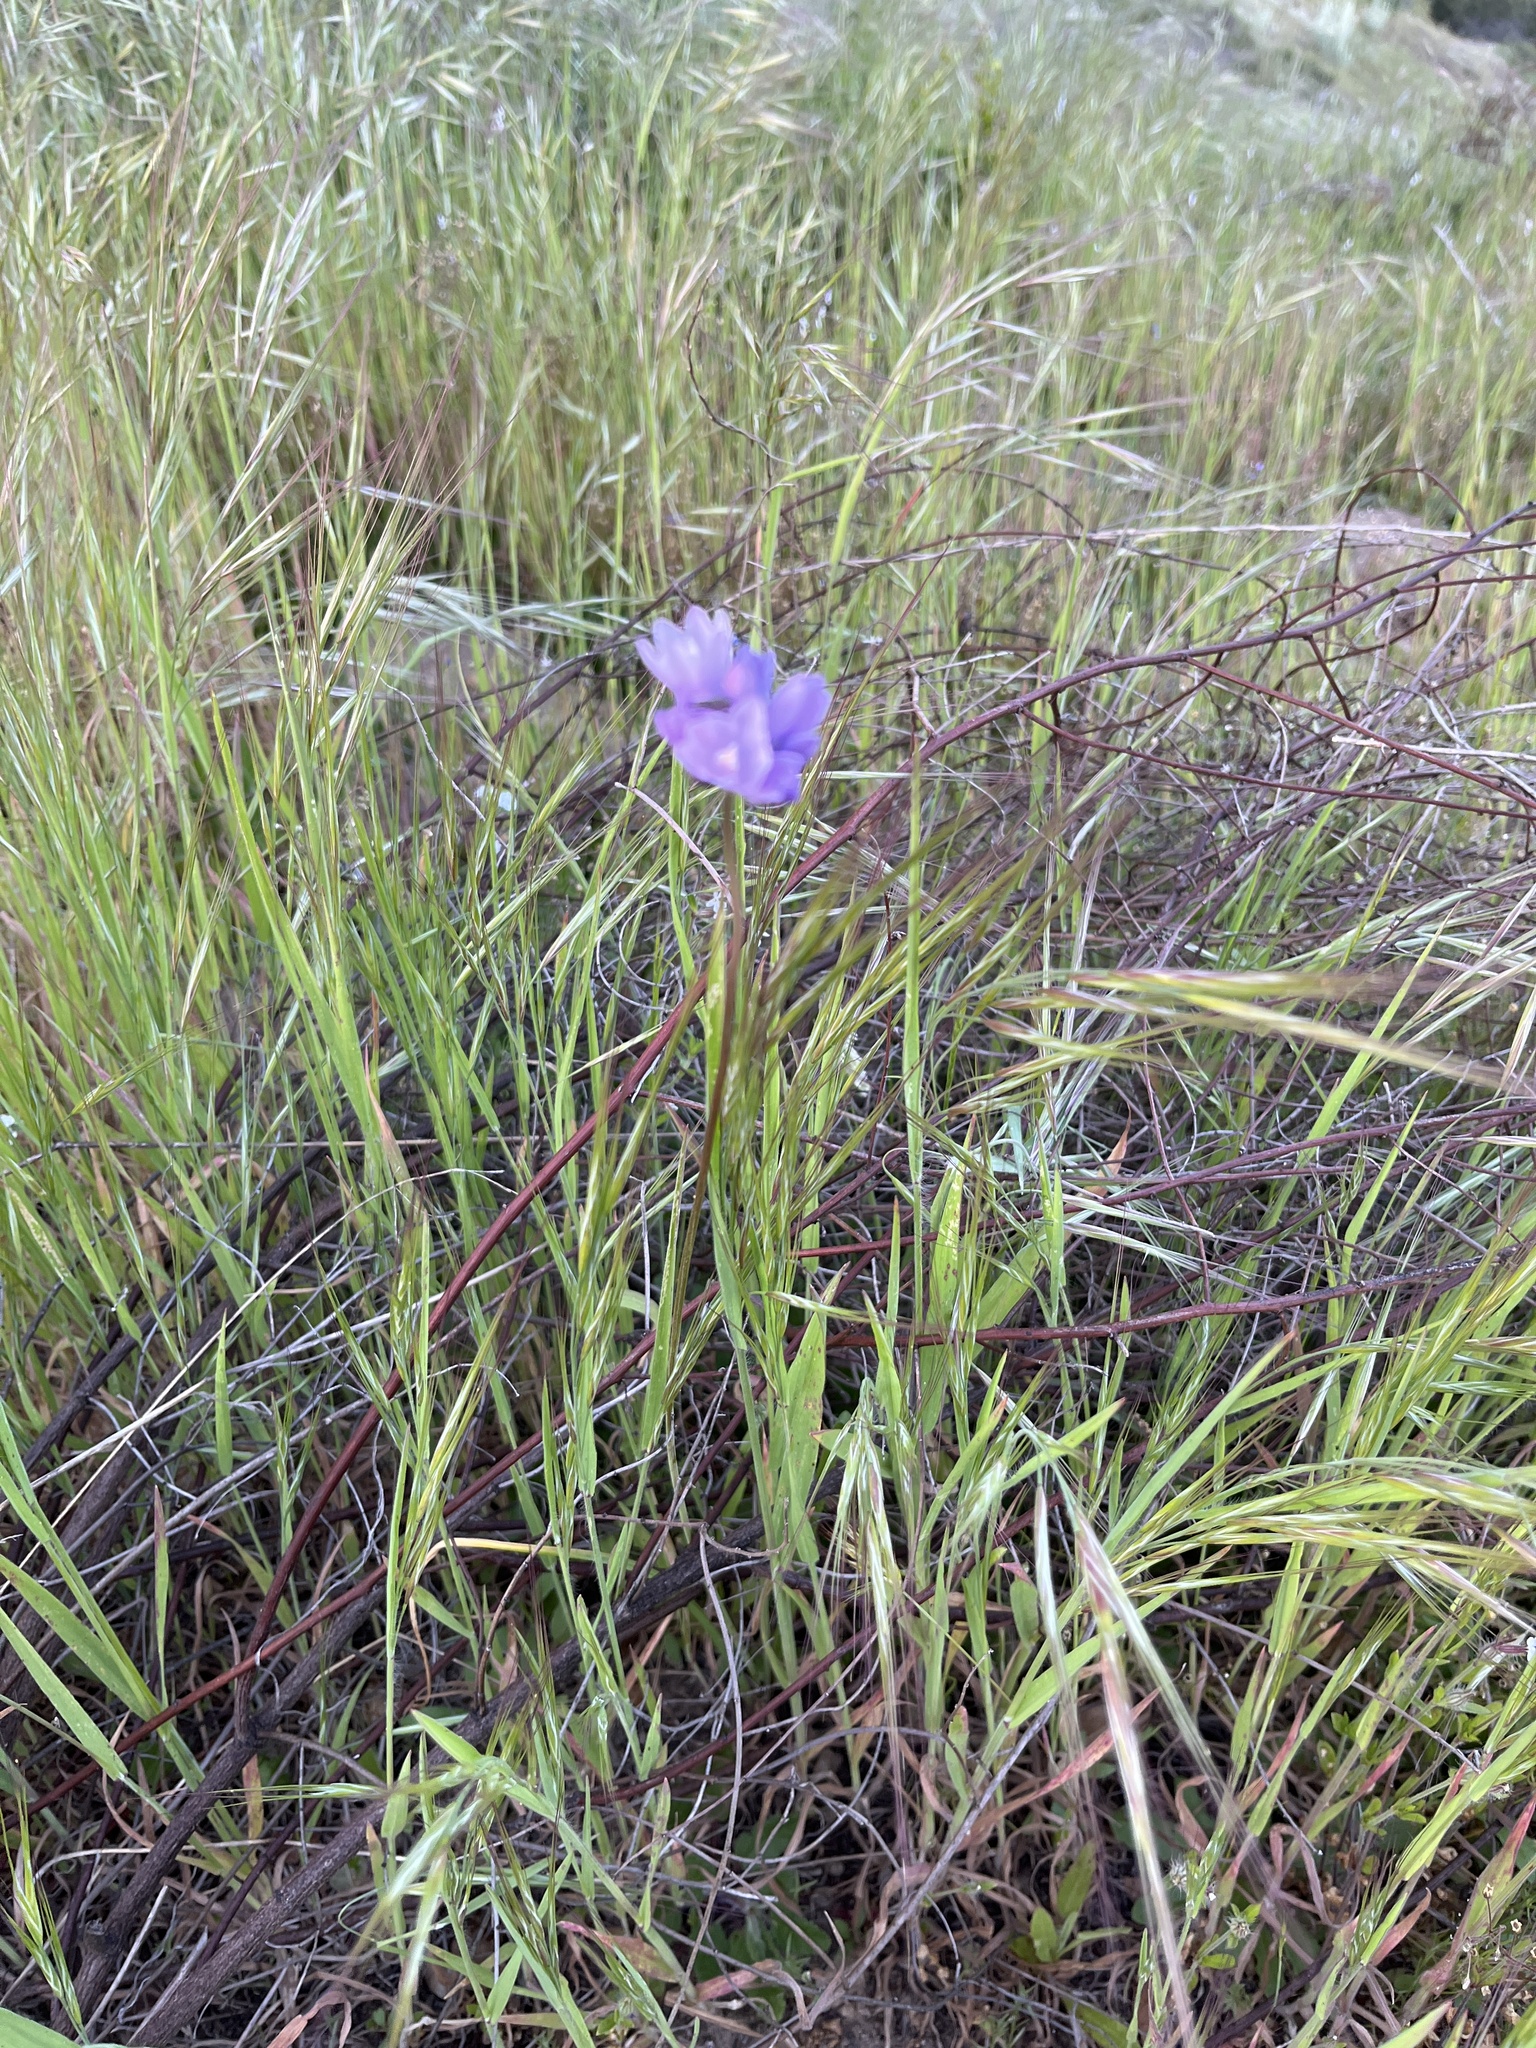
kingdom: Plantae
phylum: Tracheophyta
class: Liliopsida
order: Asparagales
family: Asparagaceae
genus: Dipterostemon
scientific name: Dipterostemon capitatus
